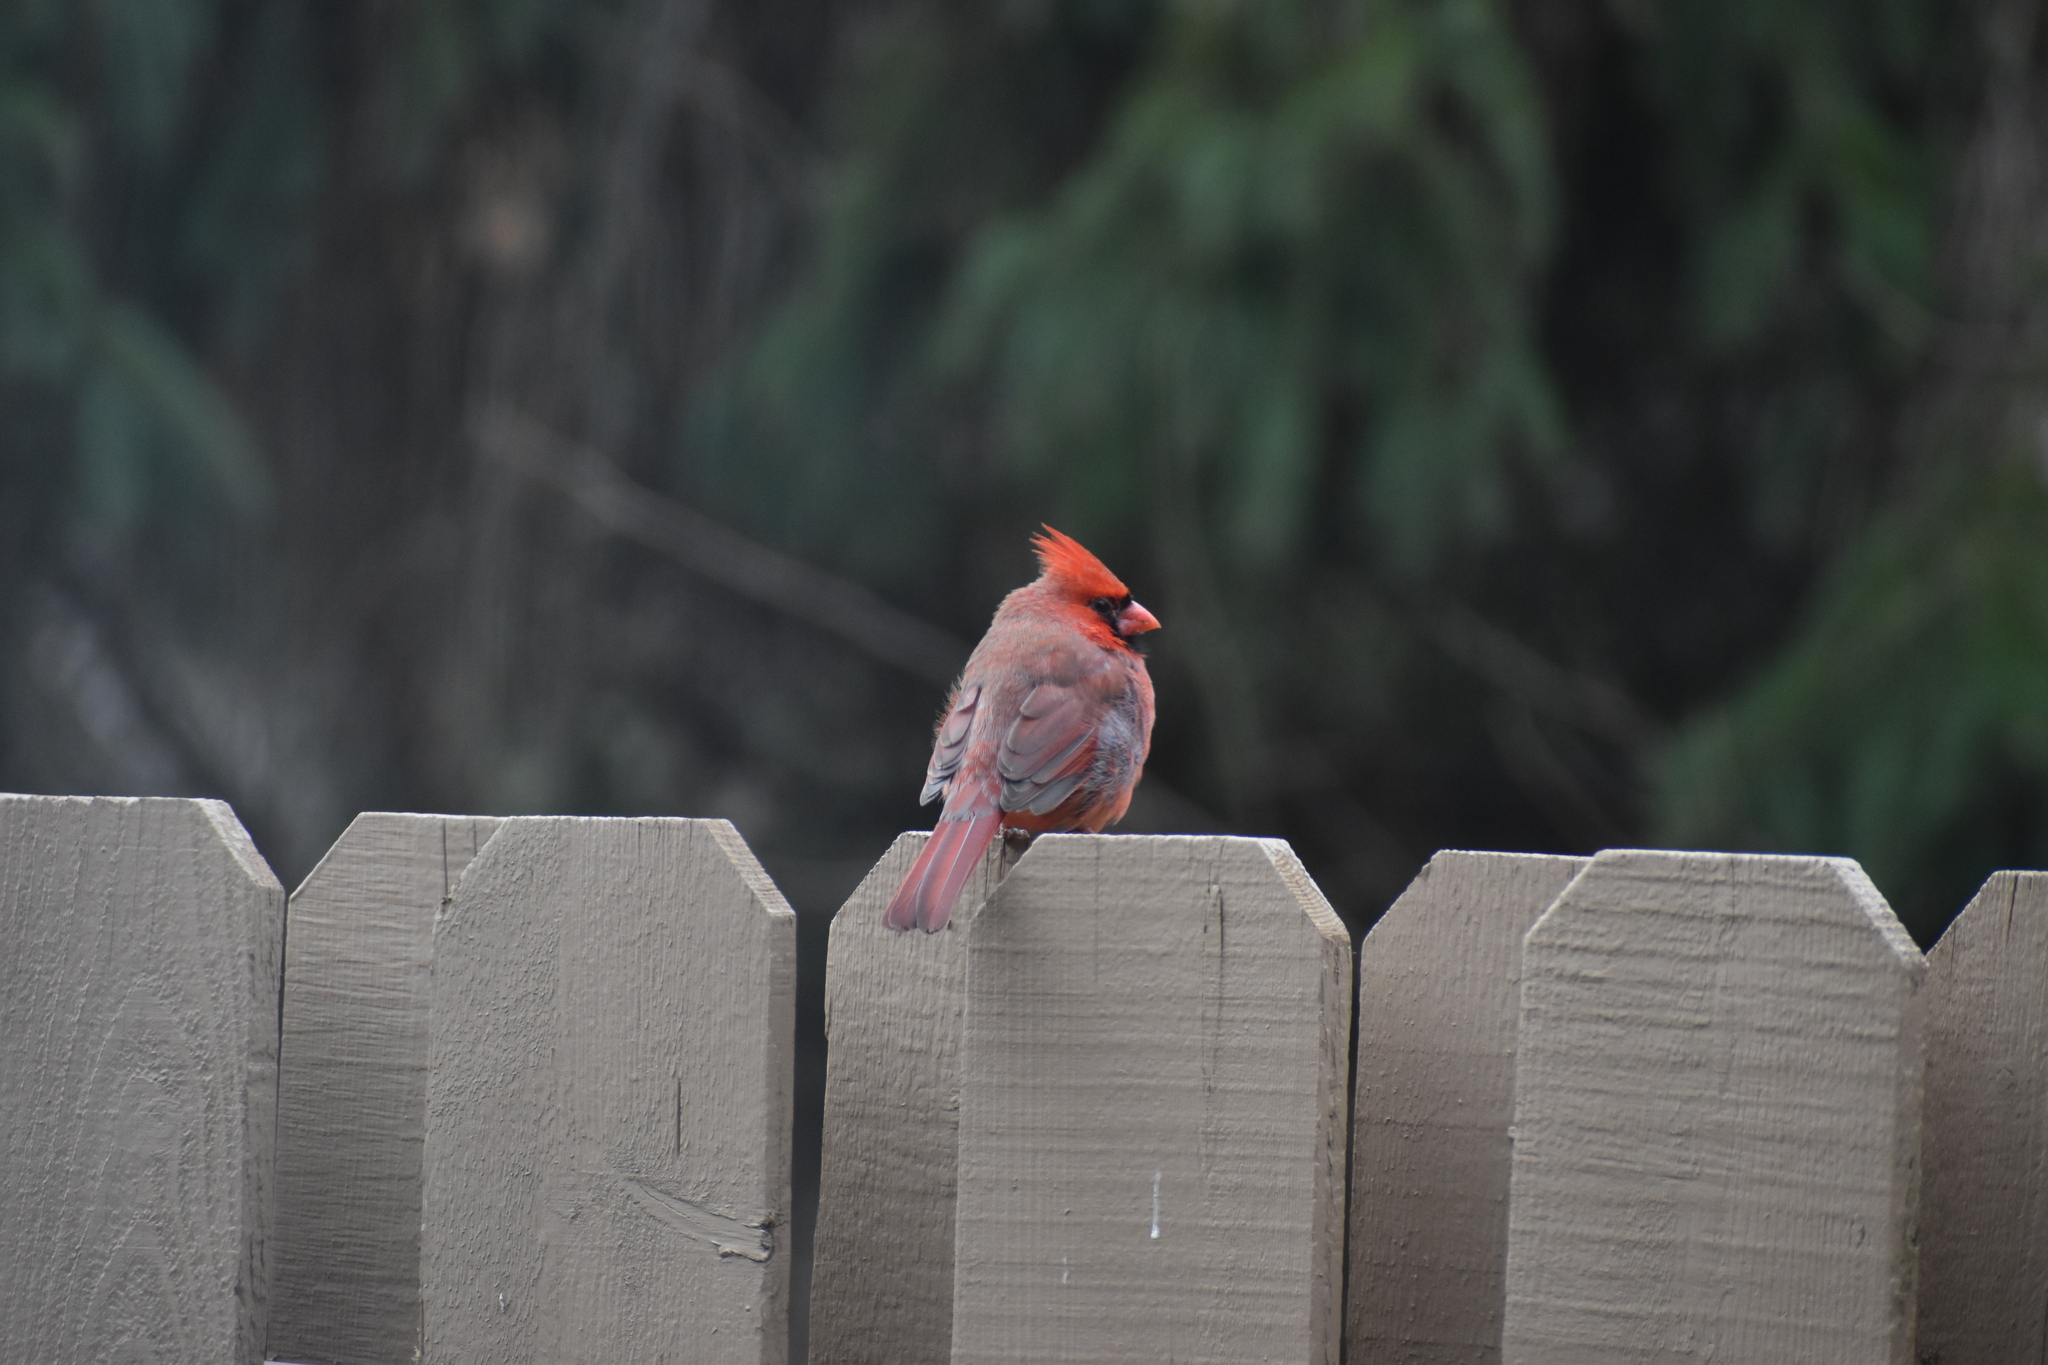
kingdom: Animalia
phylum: Chordata
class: Aves
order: Passeriformes
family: Cardinalidae
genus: Cardinalis
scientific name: Cardinalis cardinalis
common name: Northern cardinal
